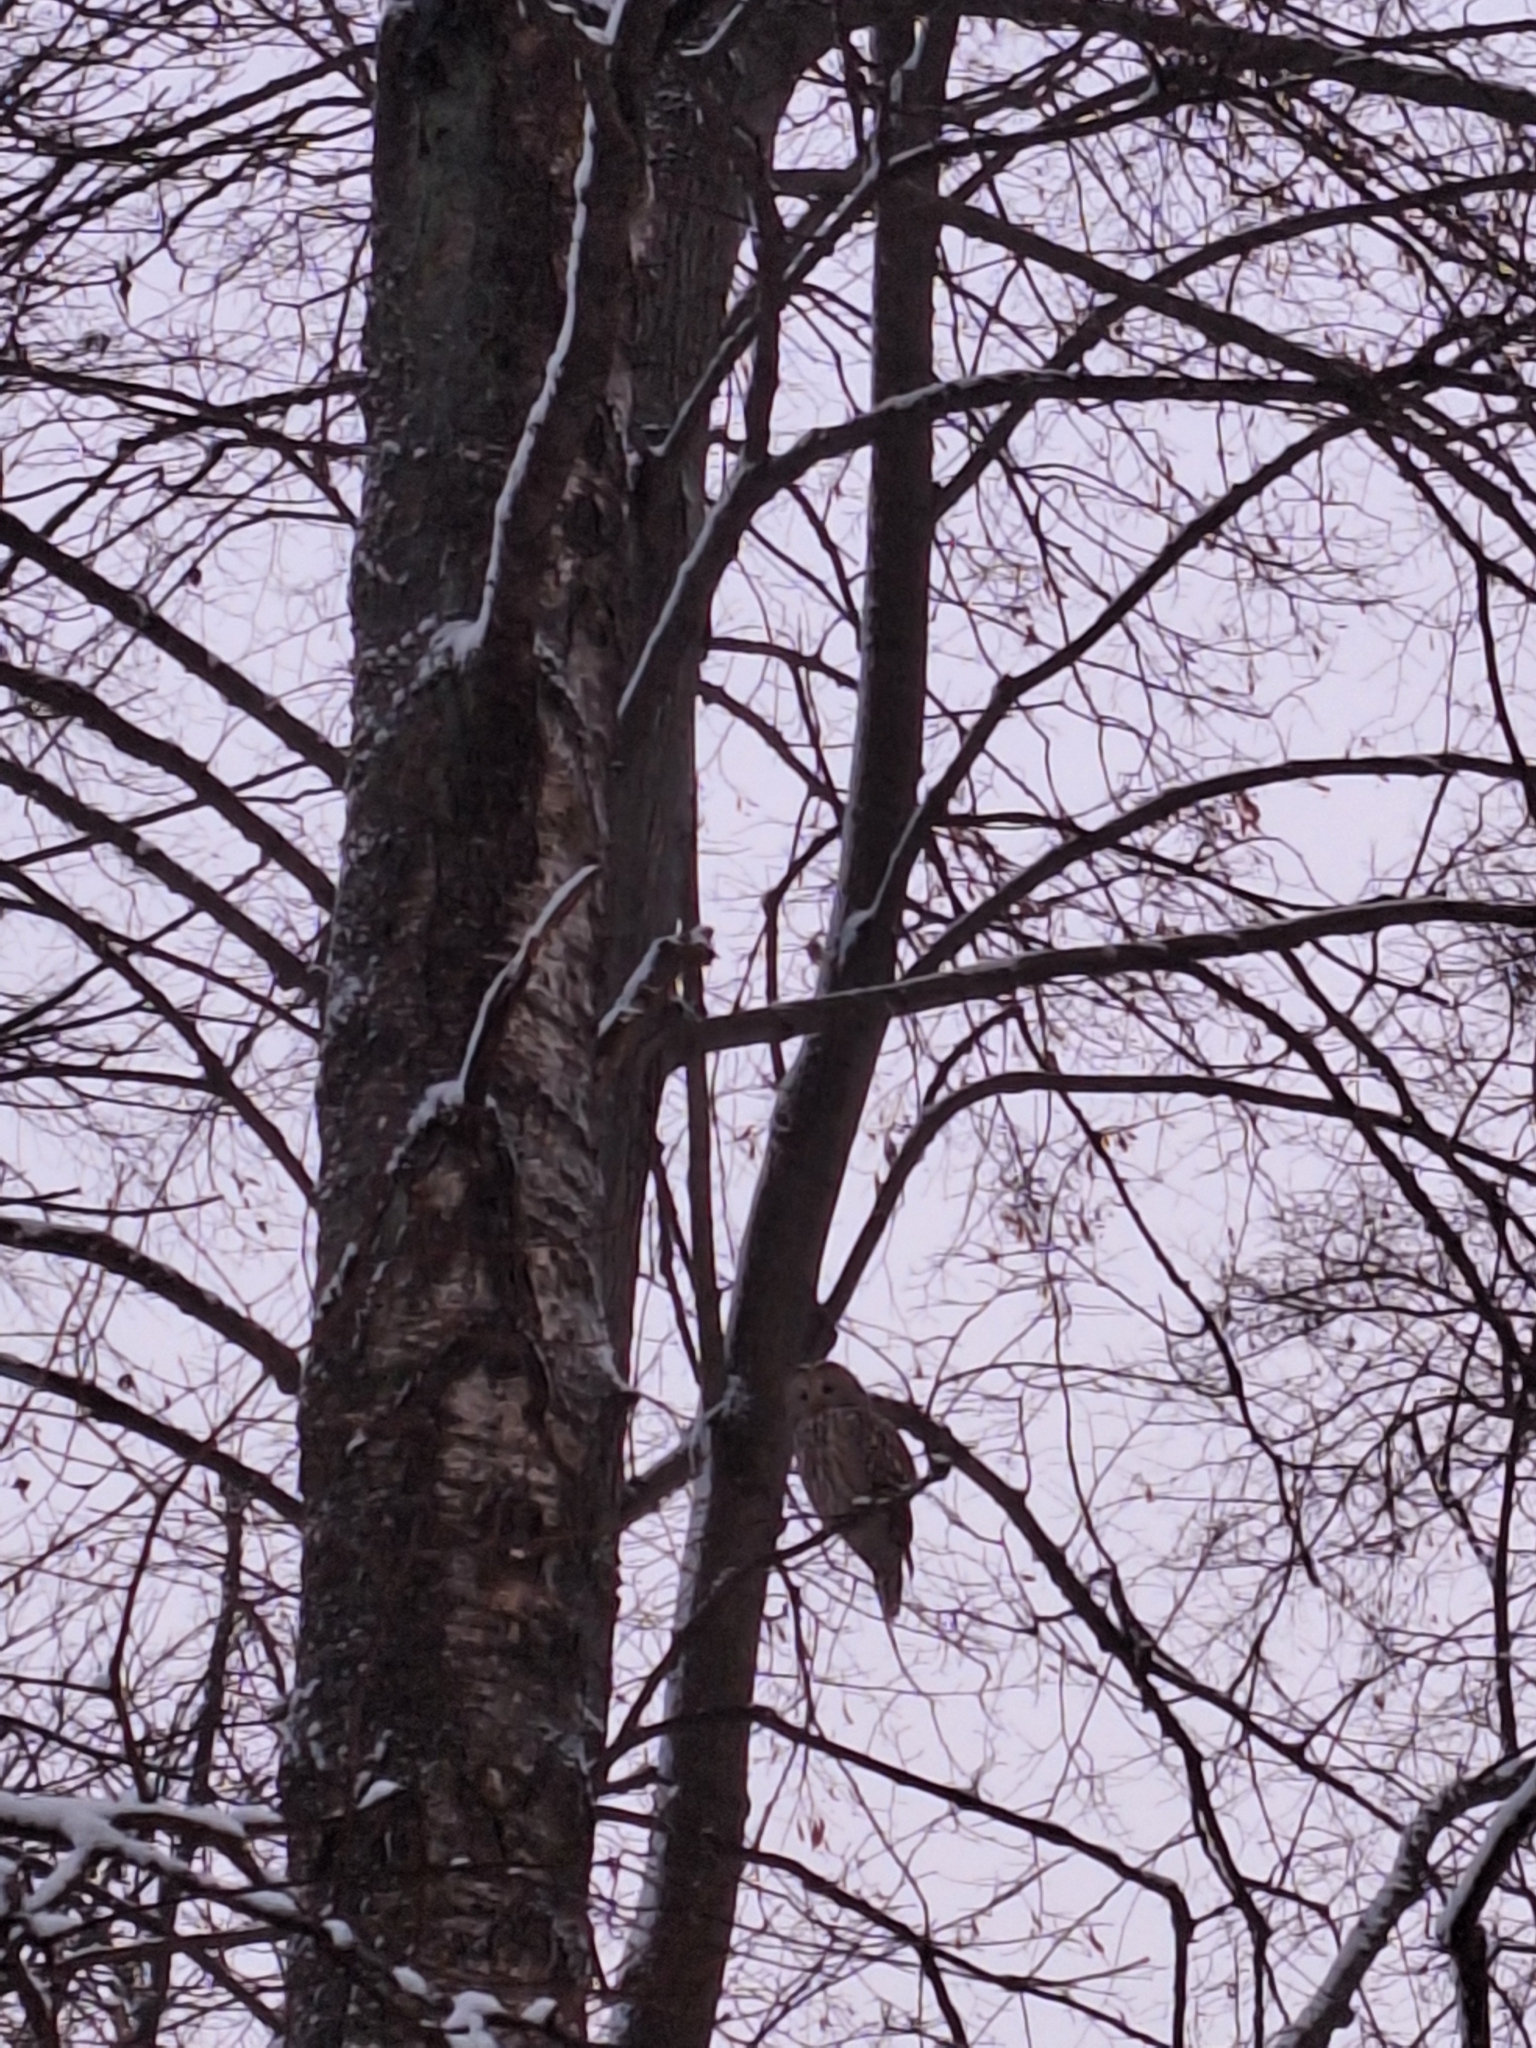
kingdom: Animalia
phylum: Chordata
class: Aves
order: Strigiformes
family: Strigidae
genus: Strix
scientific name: Strix uralensis
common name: Ural owl
